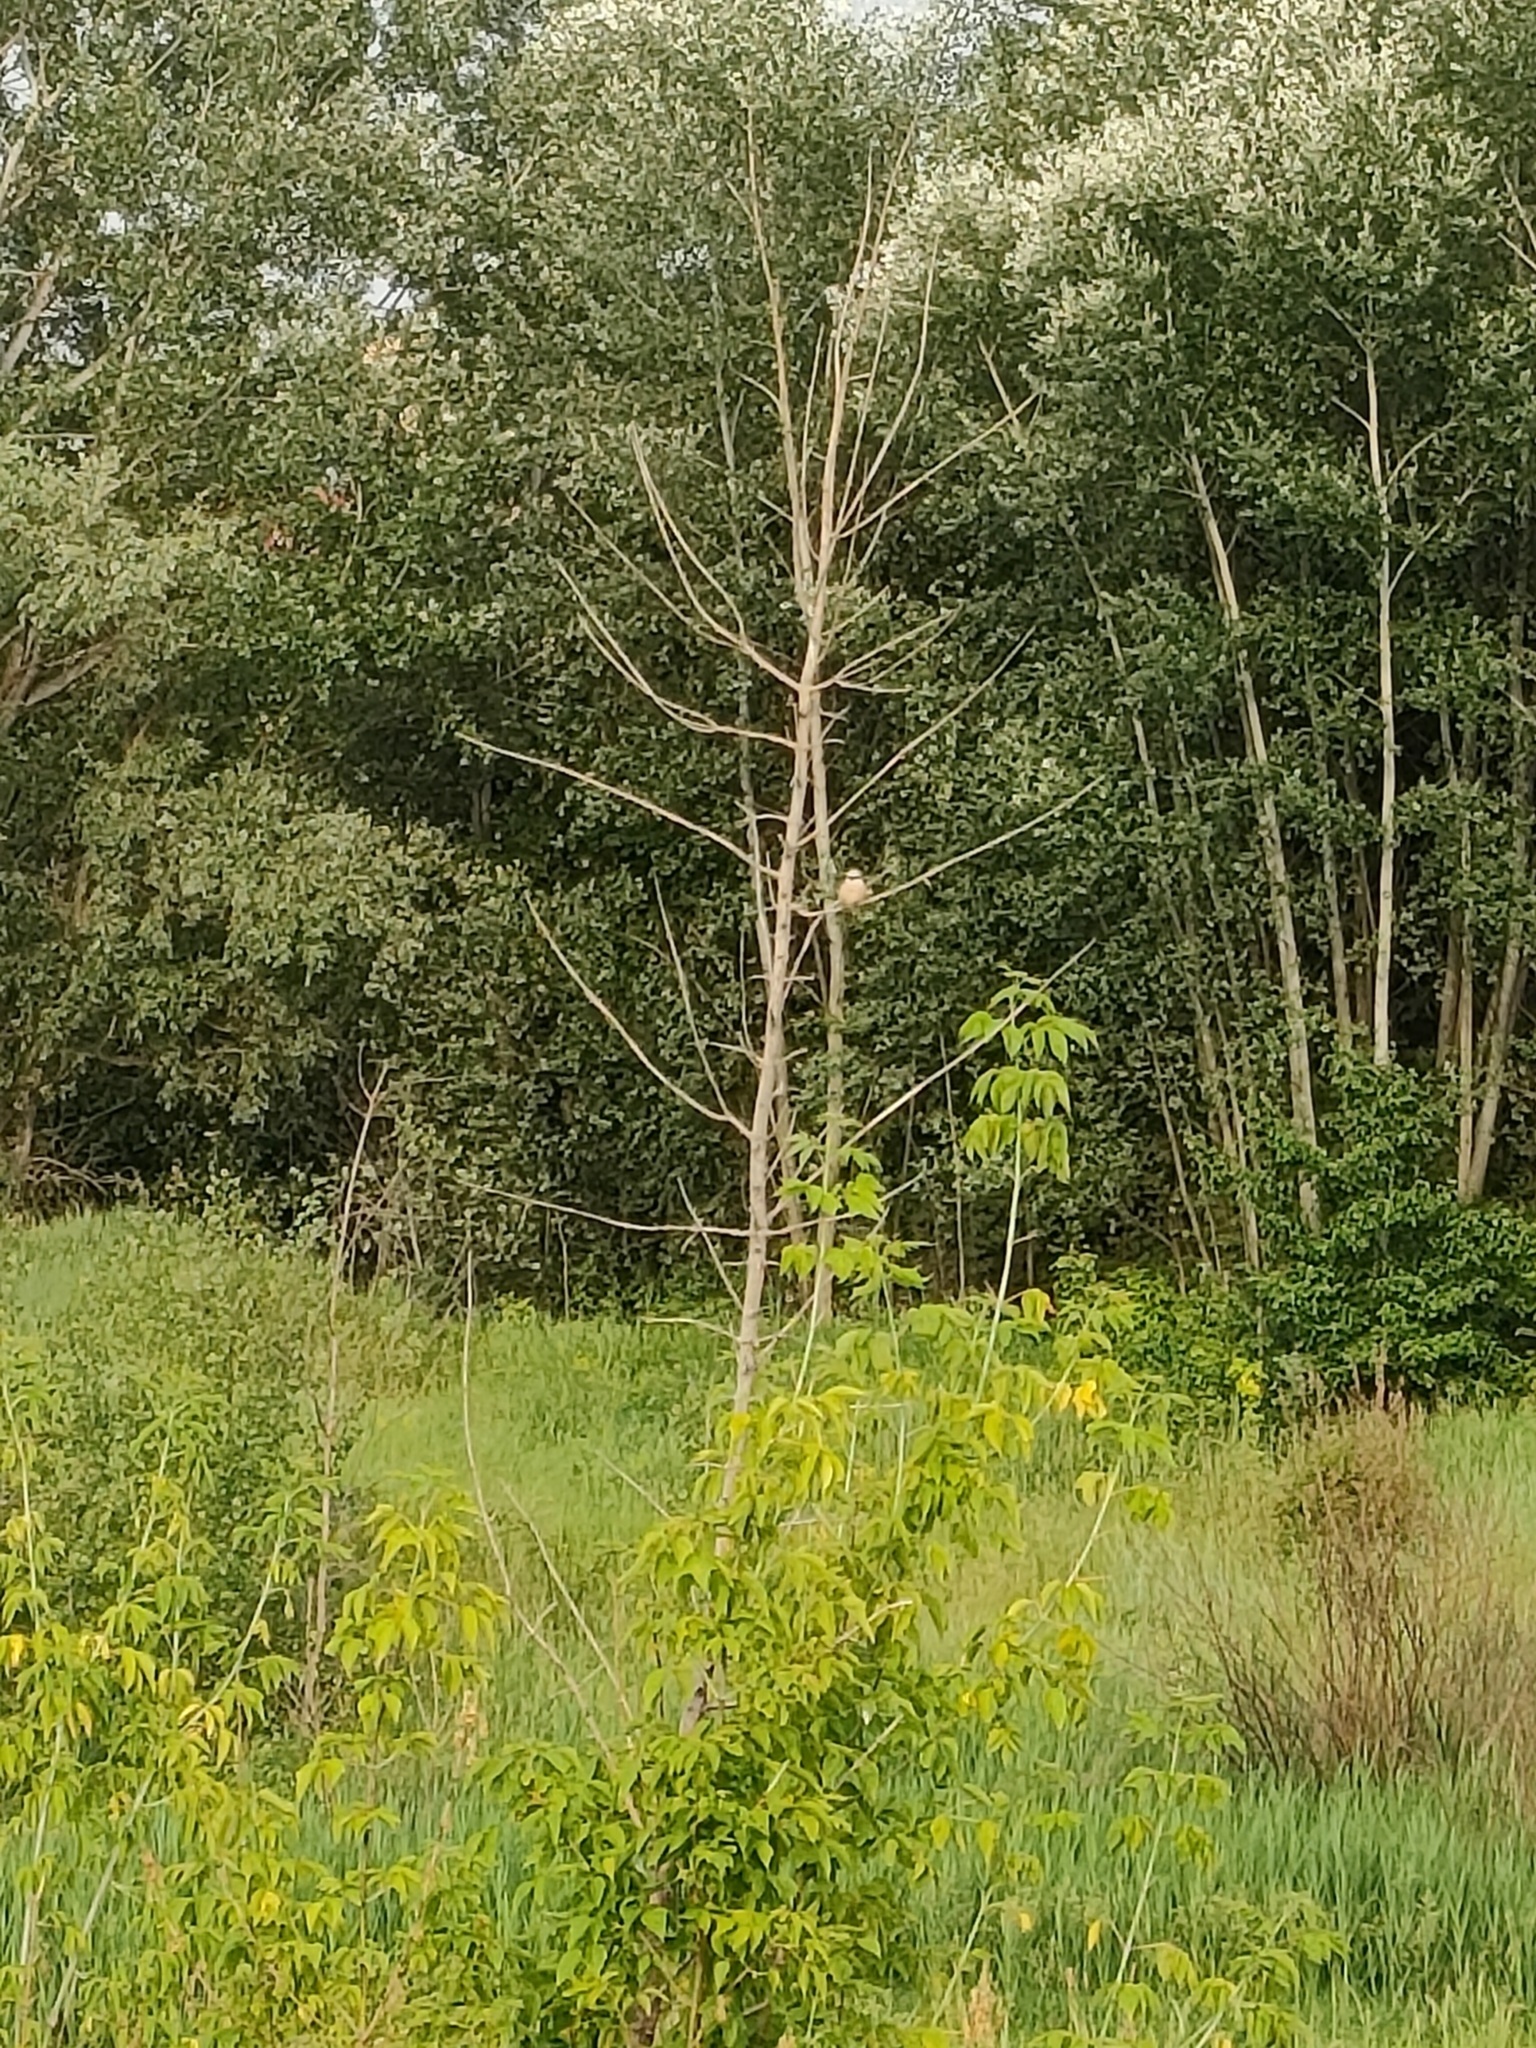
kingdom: Animalia
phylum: Chordata
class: Aves
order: Passeriformes
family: Laniidae
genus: Lanius
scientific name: Lanius collurio
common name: Red-backed shrike
